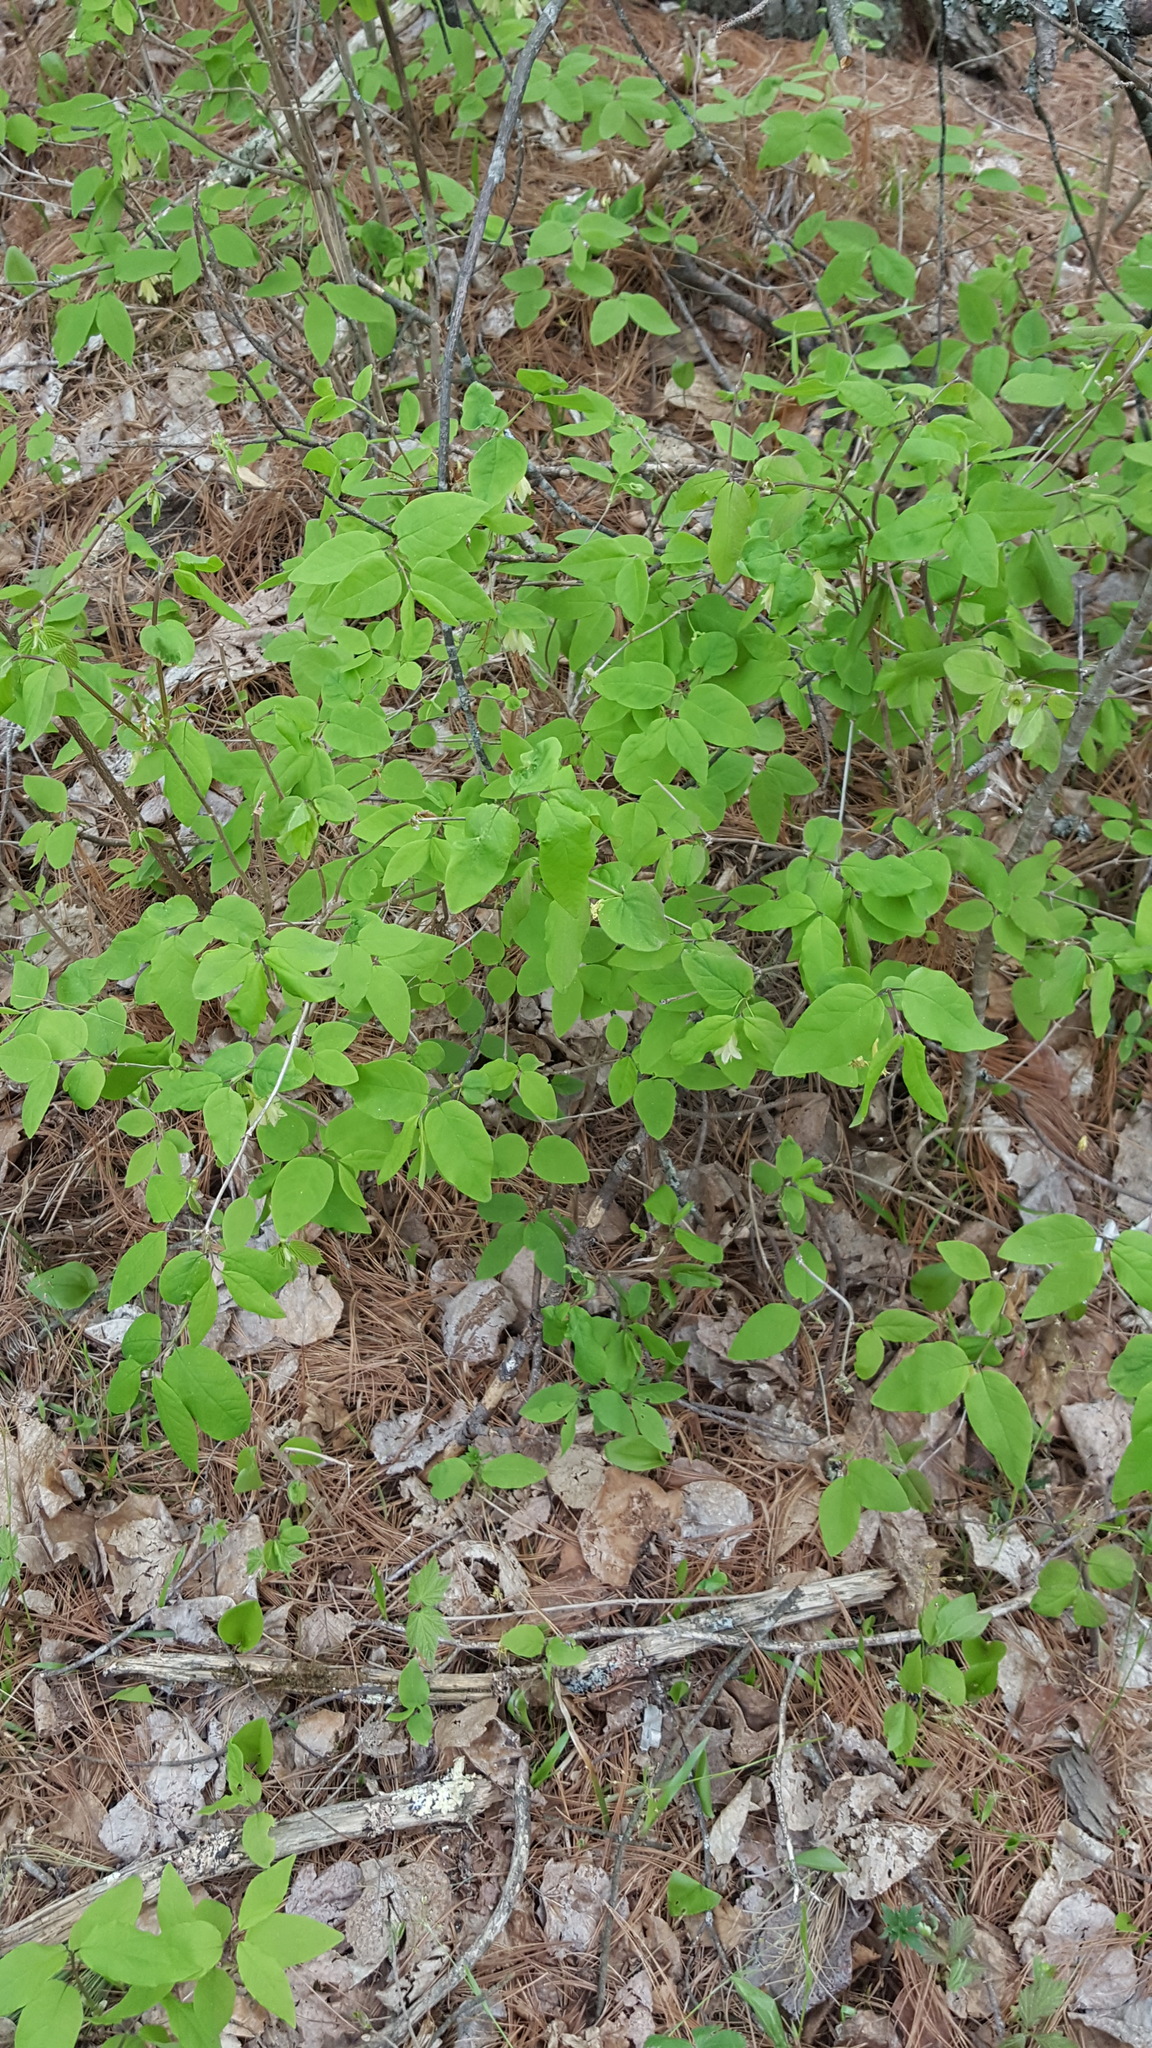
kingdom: Plantae
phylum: Tracheophyta
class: Magnoliopsida
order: Dipsacales
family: Caprifoliaceae
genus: Lonicera
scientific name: Lonicera canadensis
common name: American fly-honeysuckle
